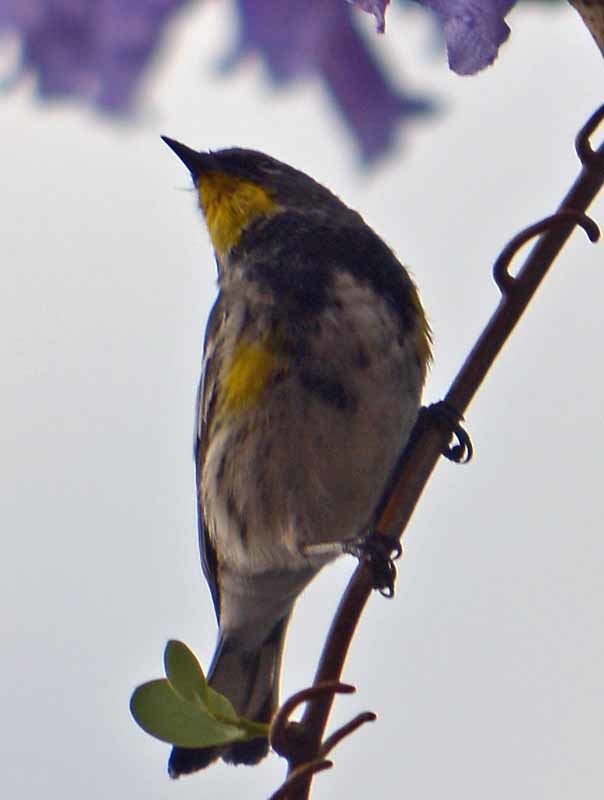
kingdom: Animalia
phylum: Chordata
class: Aves
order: Passeriformes
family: Parulidae
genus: Setophaga
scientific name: Setophaga coronata
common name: Myrtle warbler
